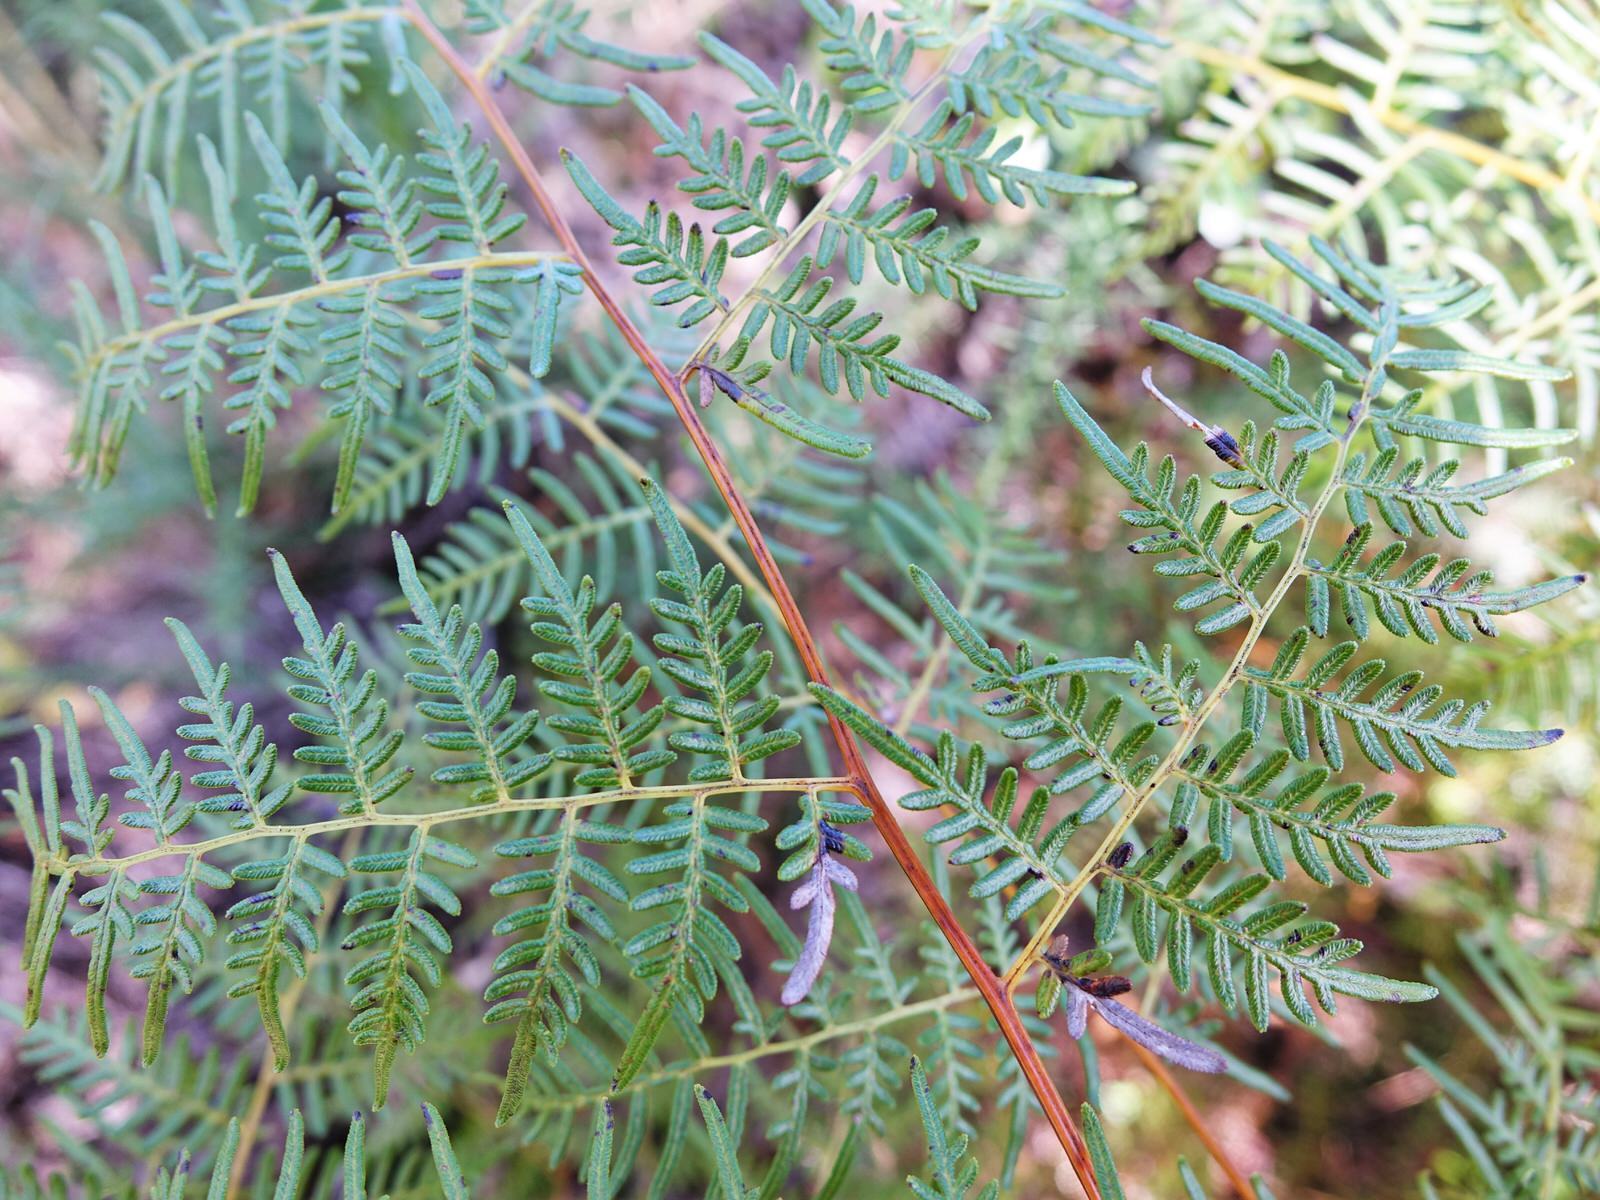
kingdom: Plantae
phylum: Tracheophyta
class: Polypodiopsida
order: Polypodiales
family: Dennstaedtiaceae
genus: Pteridium
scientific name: Pteridium esculentum
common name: Bracken fern
